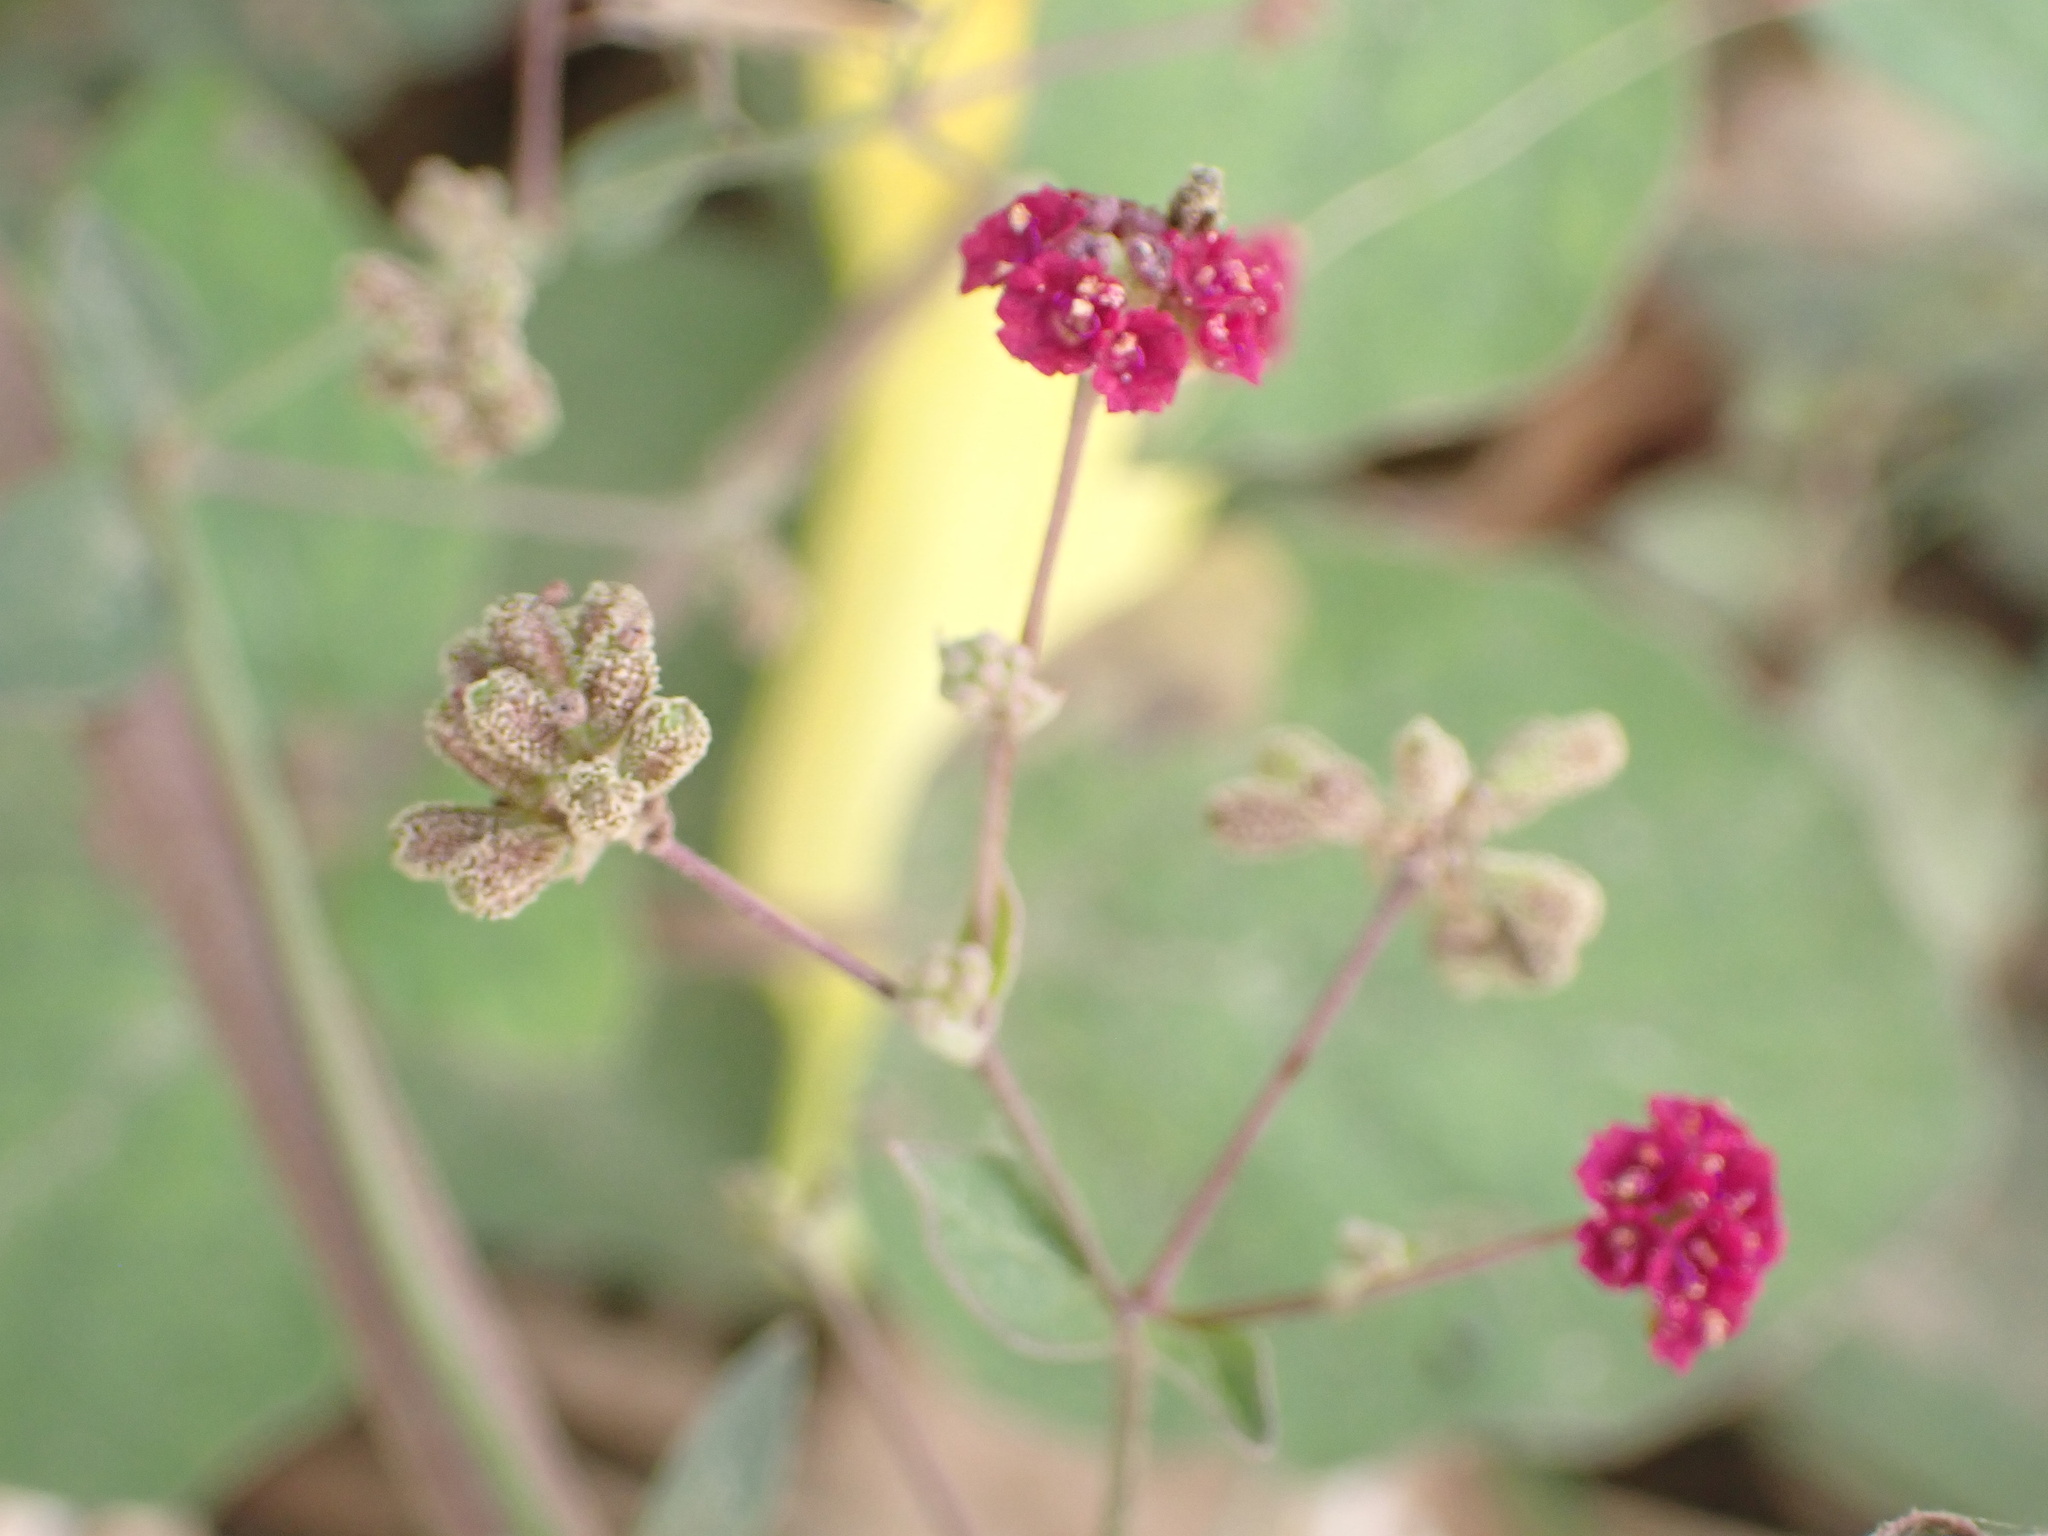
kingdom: Plantae
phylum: Tracheophyta
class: Magnoliopsida
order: Caryophyllales
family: Nyctaginaceae
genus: Boerhavia
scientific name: Boerhavia coccinea
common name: Scarlet spiderling
